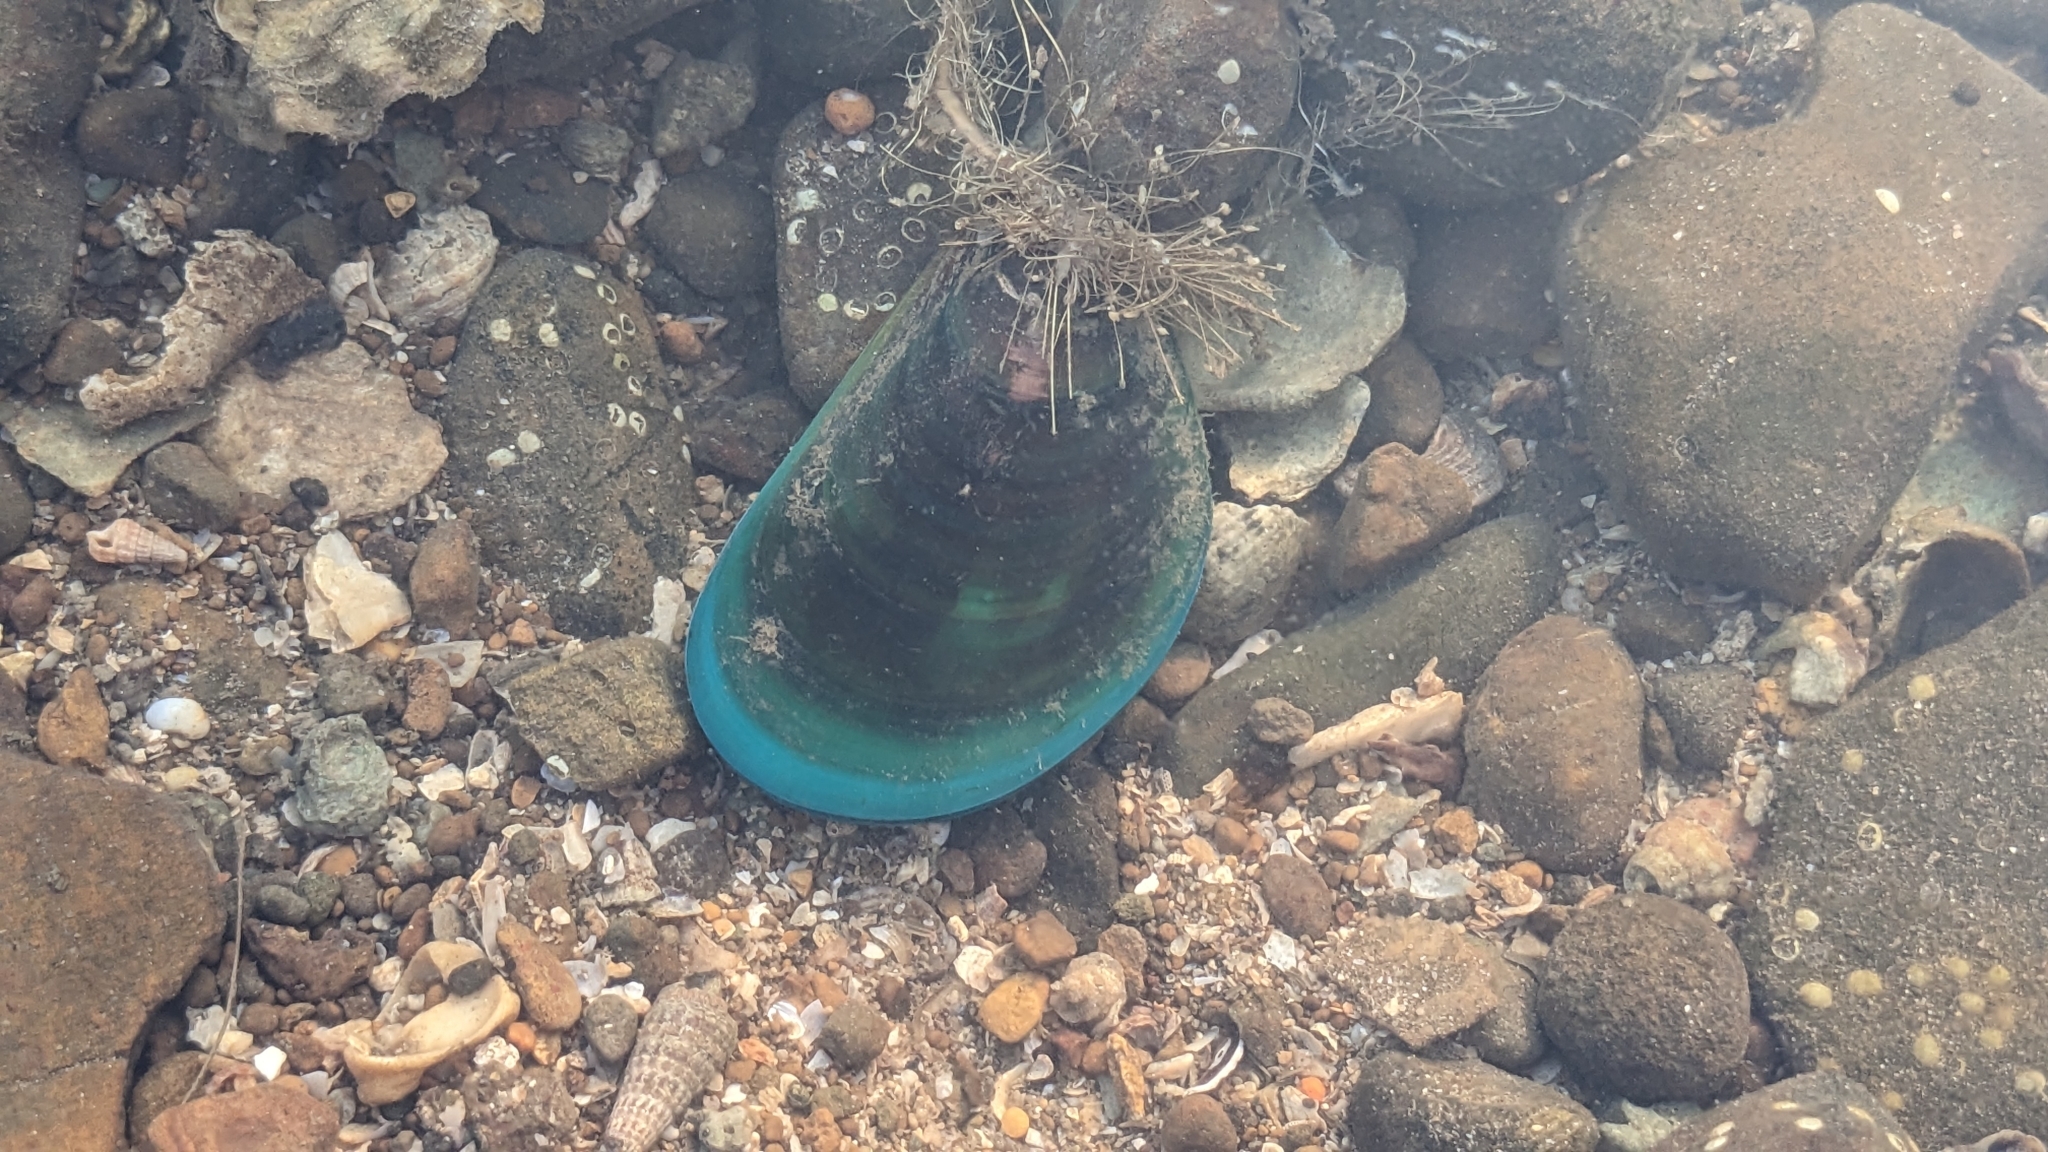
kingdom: Animalia
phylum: Mollusca
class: Bivalvia
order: Mytilida
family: Mytilidae
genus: Perna
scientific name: Perna viridis
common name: Green mussel
